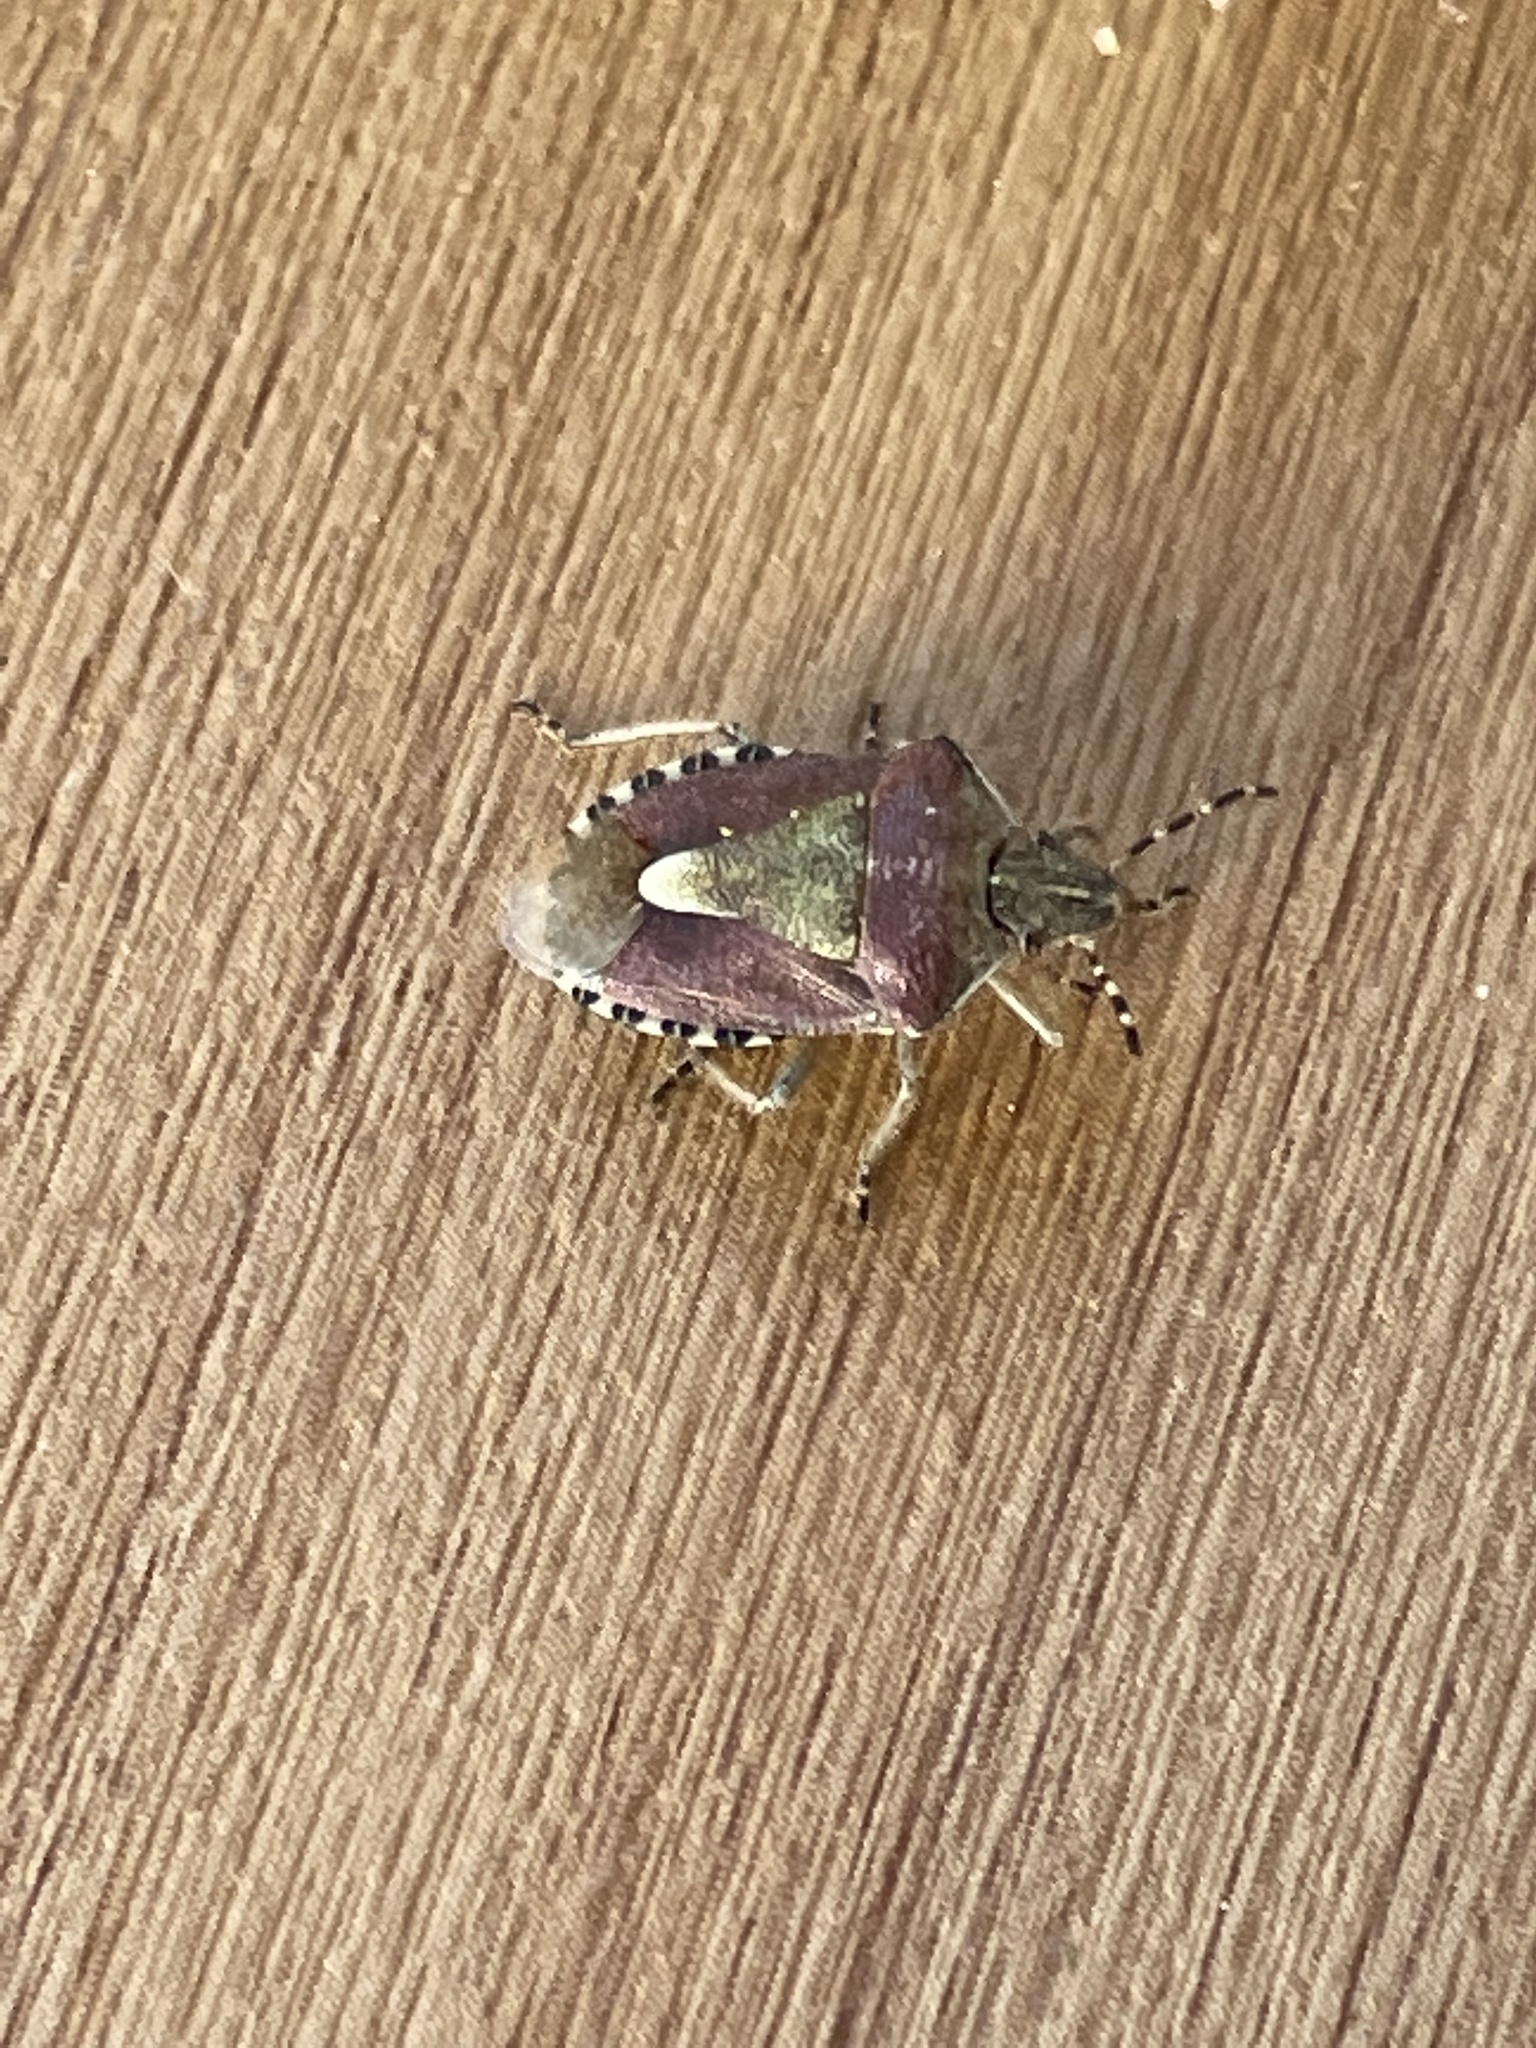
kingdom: Animalia
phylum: Arthropoda
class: Insecta
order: Hemiptera
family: Pentatomidae
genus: Dolycoris
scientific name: Dolycoris baccarum
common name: Sloe bug
